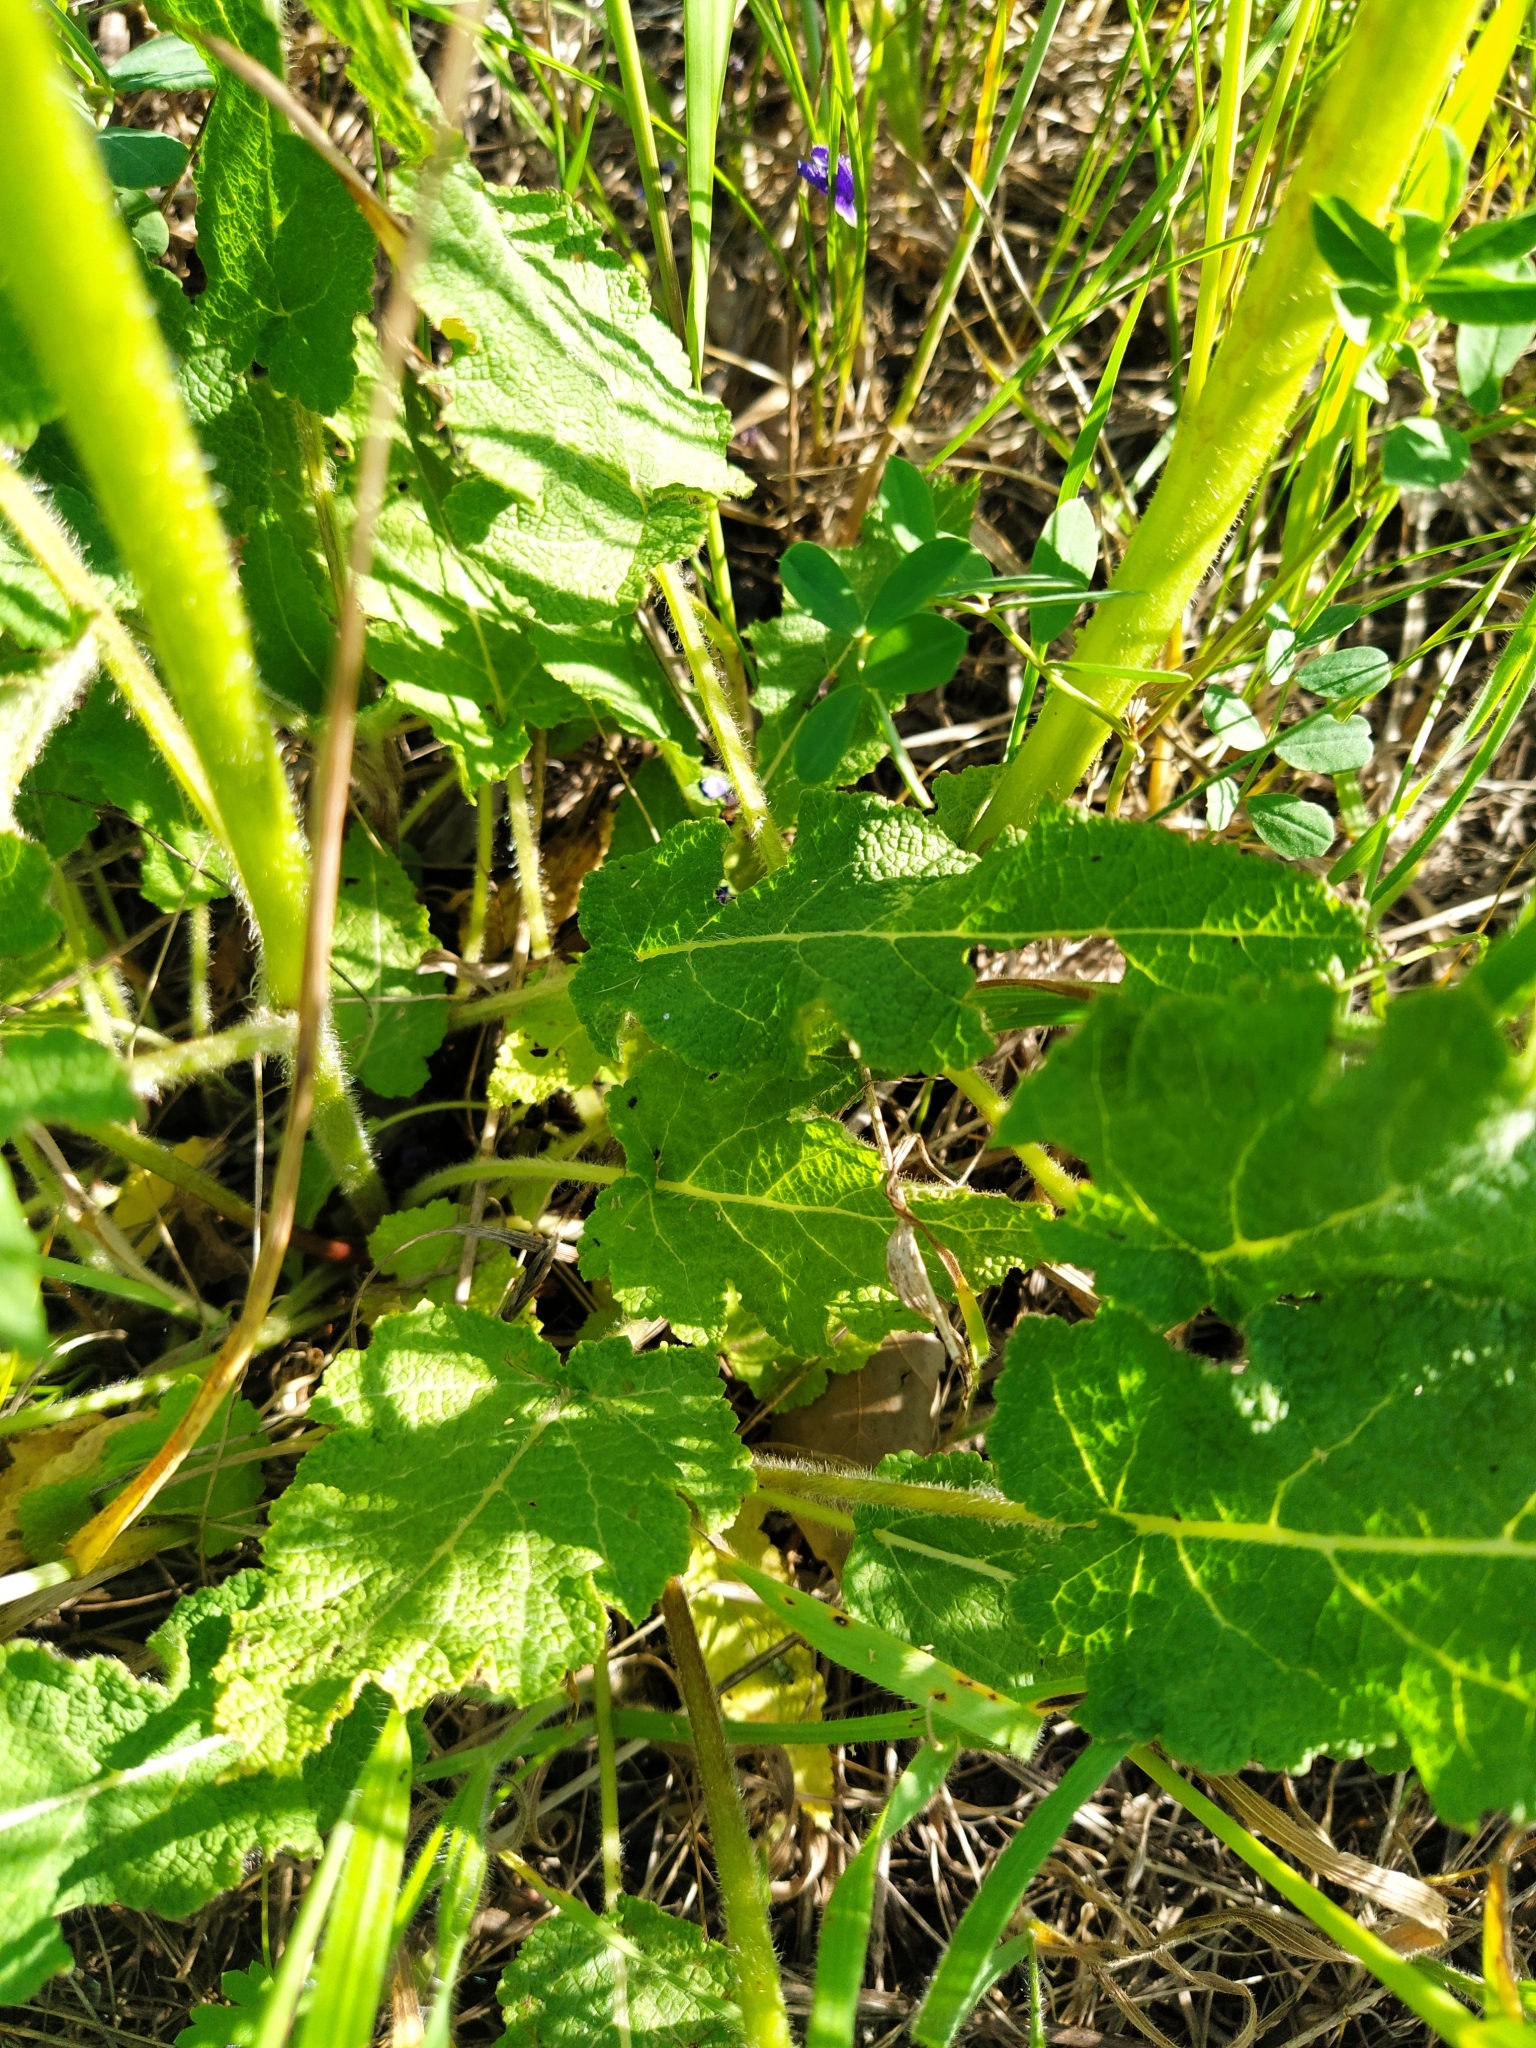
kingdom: Plantae
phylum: Tracheophyta
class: Magnoliopsida
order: Lamiales
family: Lamiaceae
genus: Salvia
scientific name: Salvia pratensis
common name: Meadow sage
